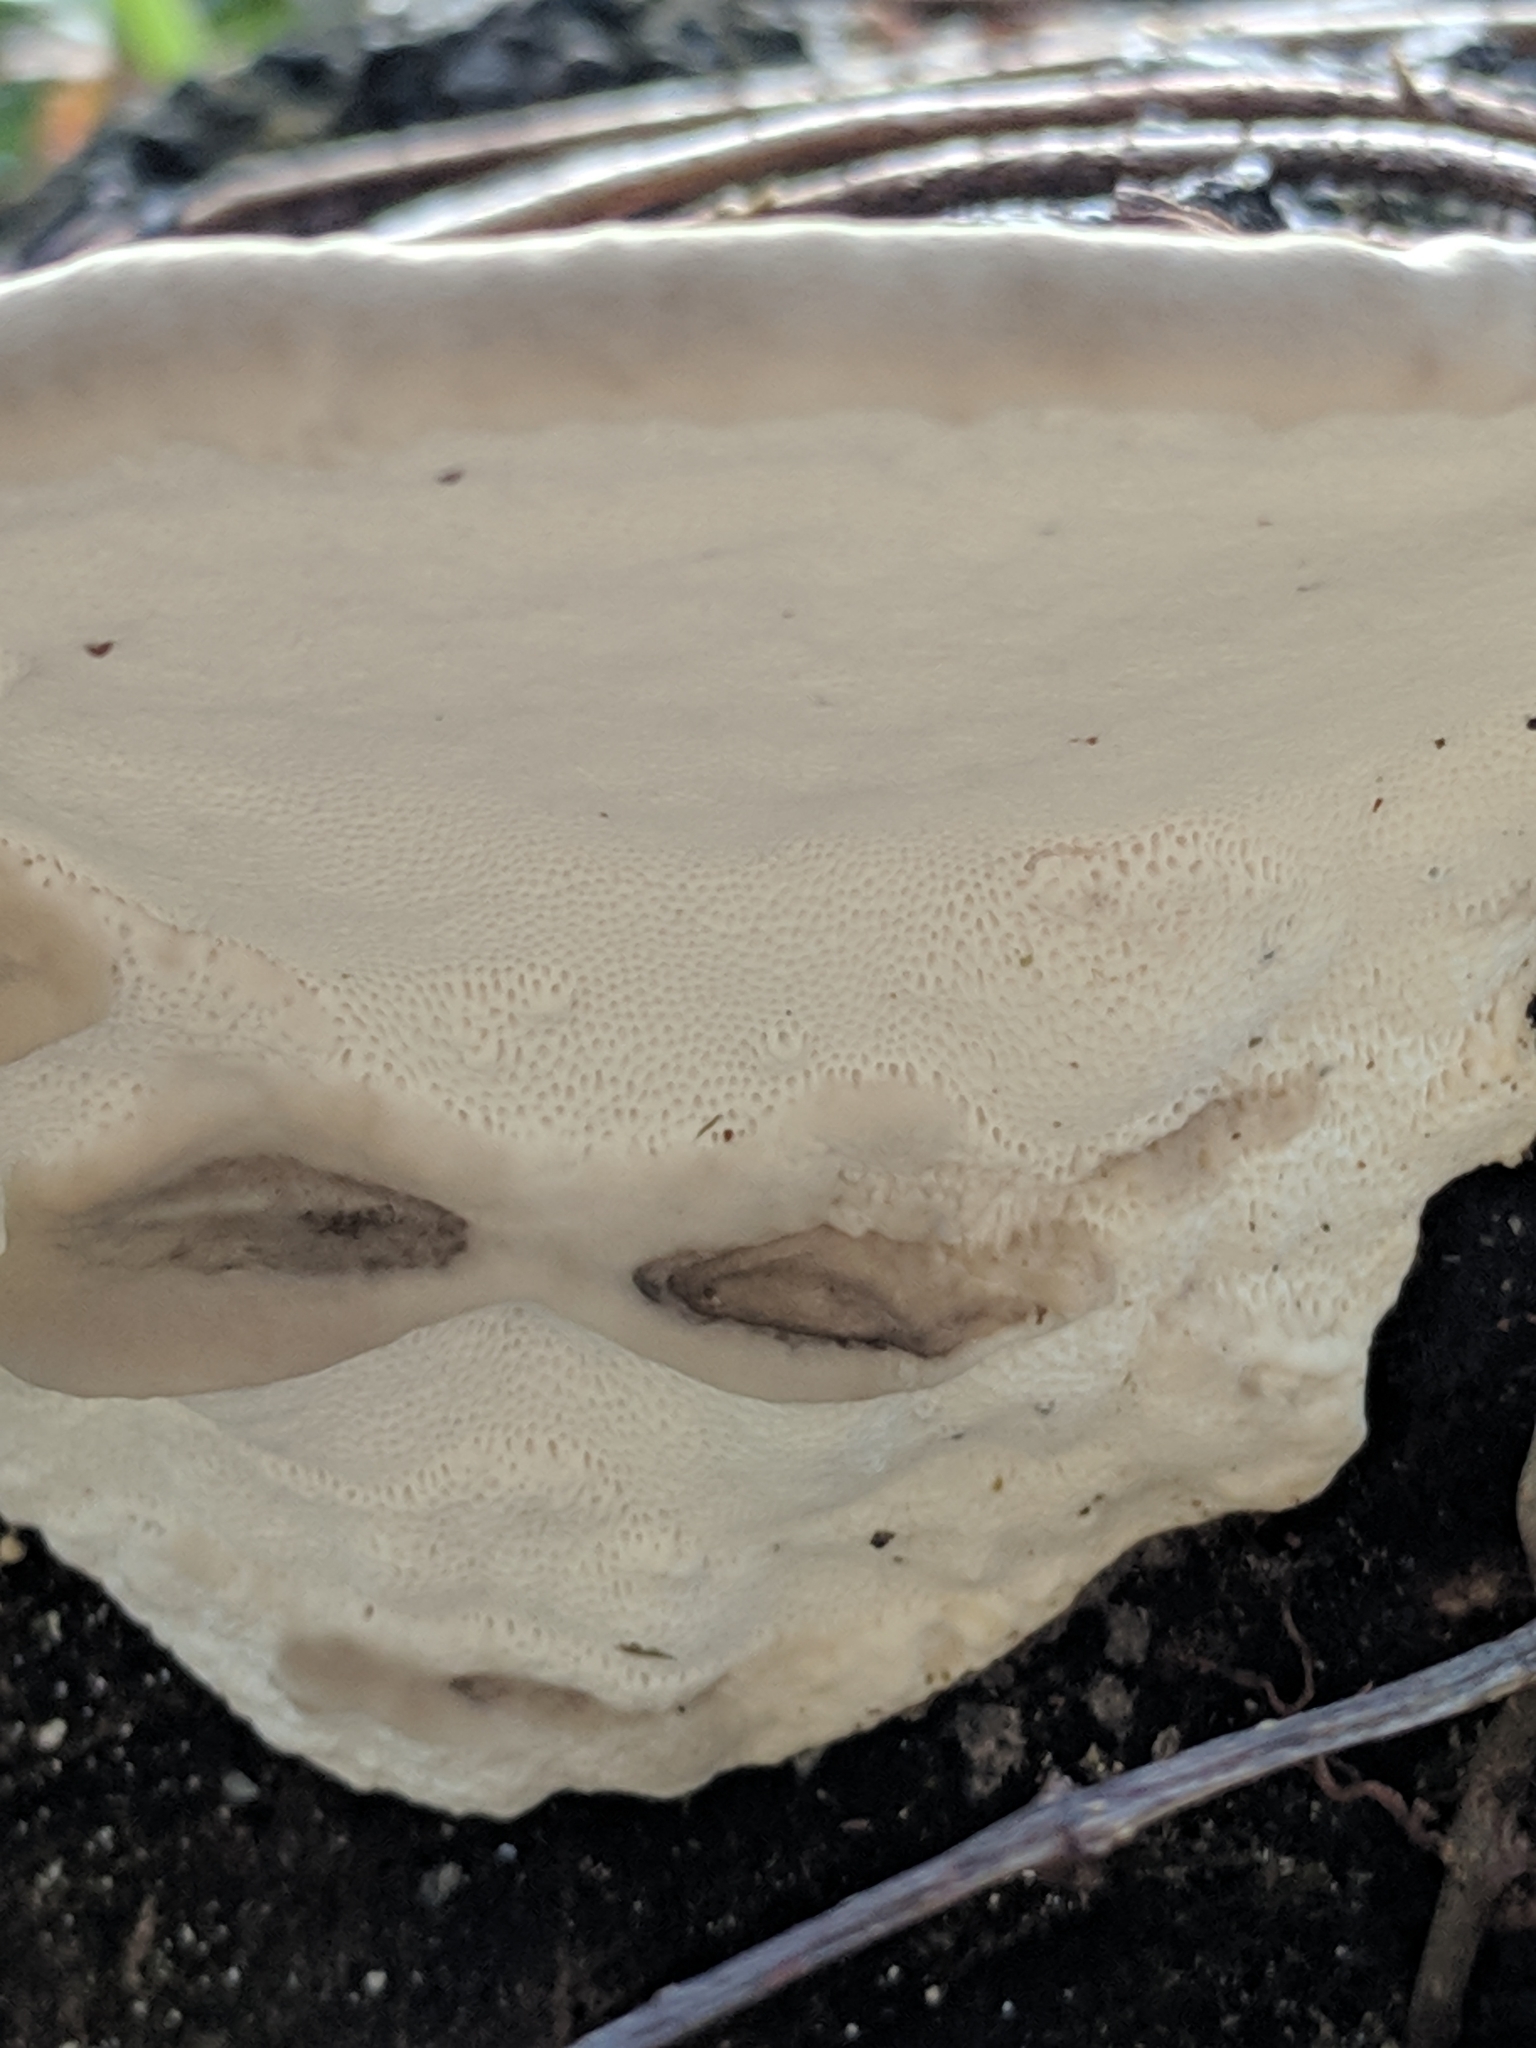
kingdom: Fungi
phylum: Basidiomycota
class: Agaricomycetes
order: Polyporales
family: Polyporaceae
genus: Trametes
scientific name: Trametes lactinea
